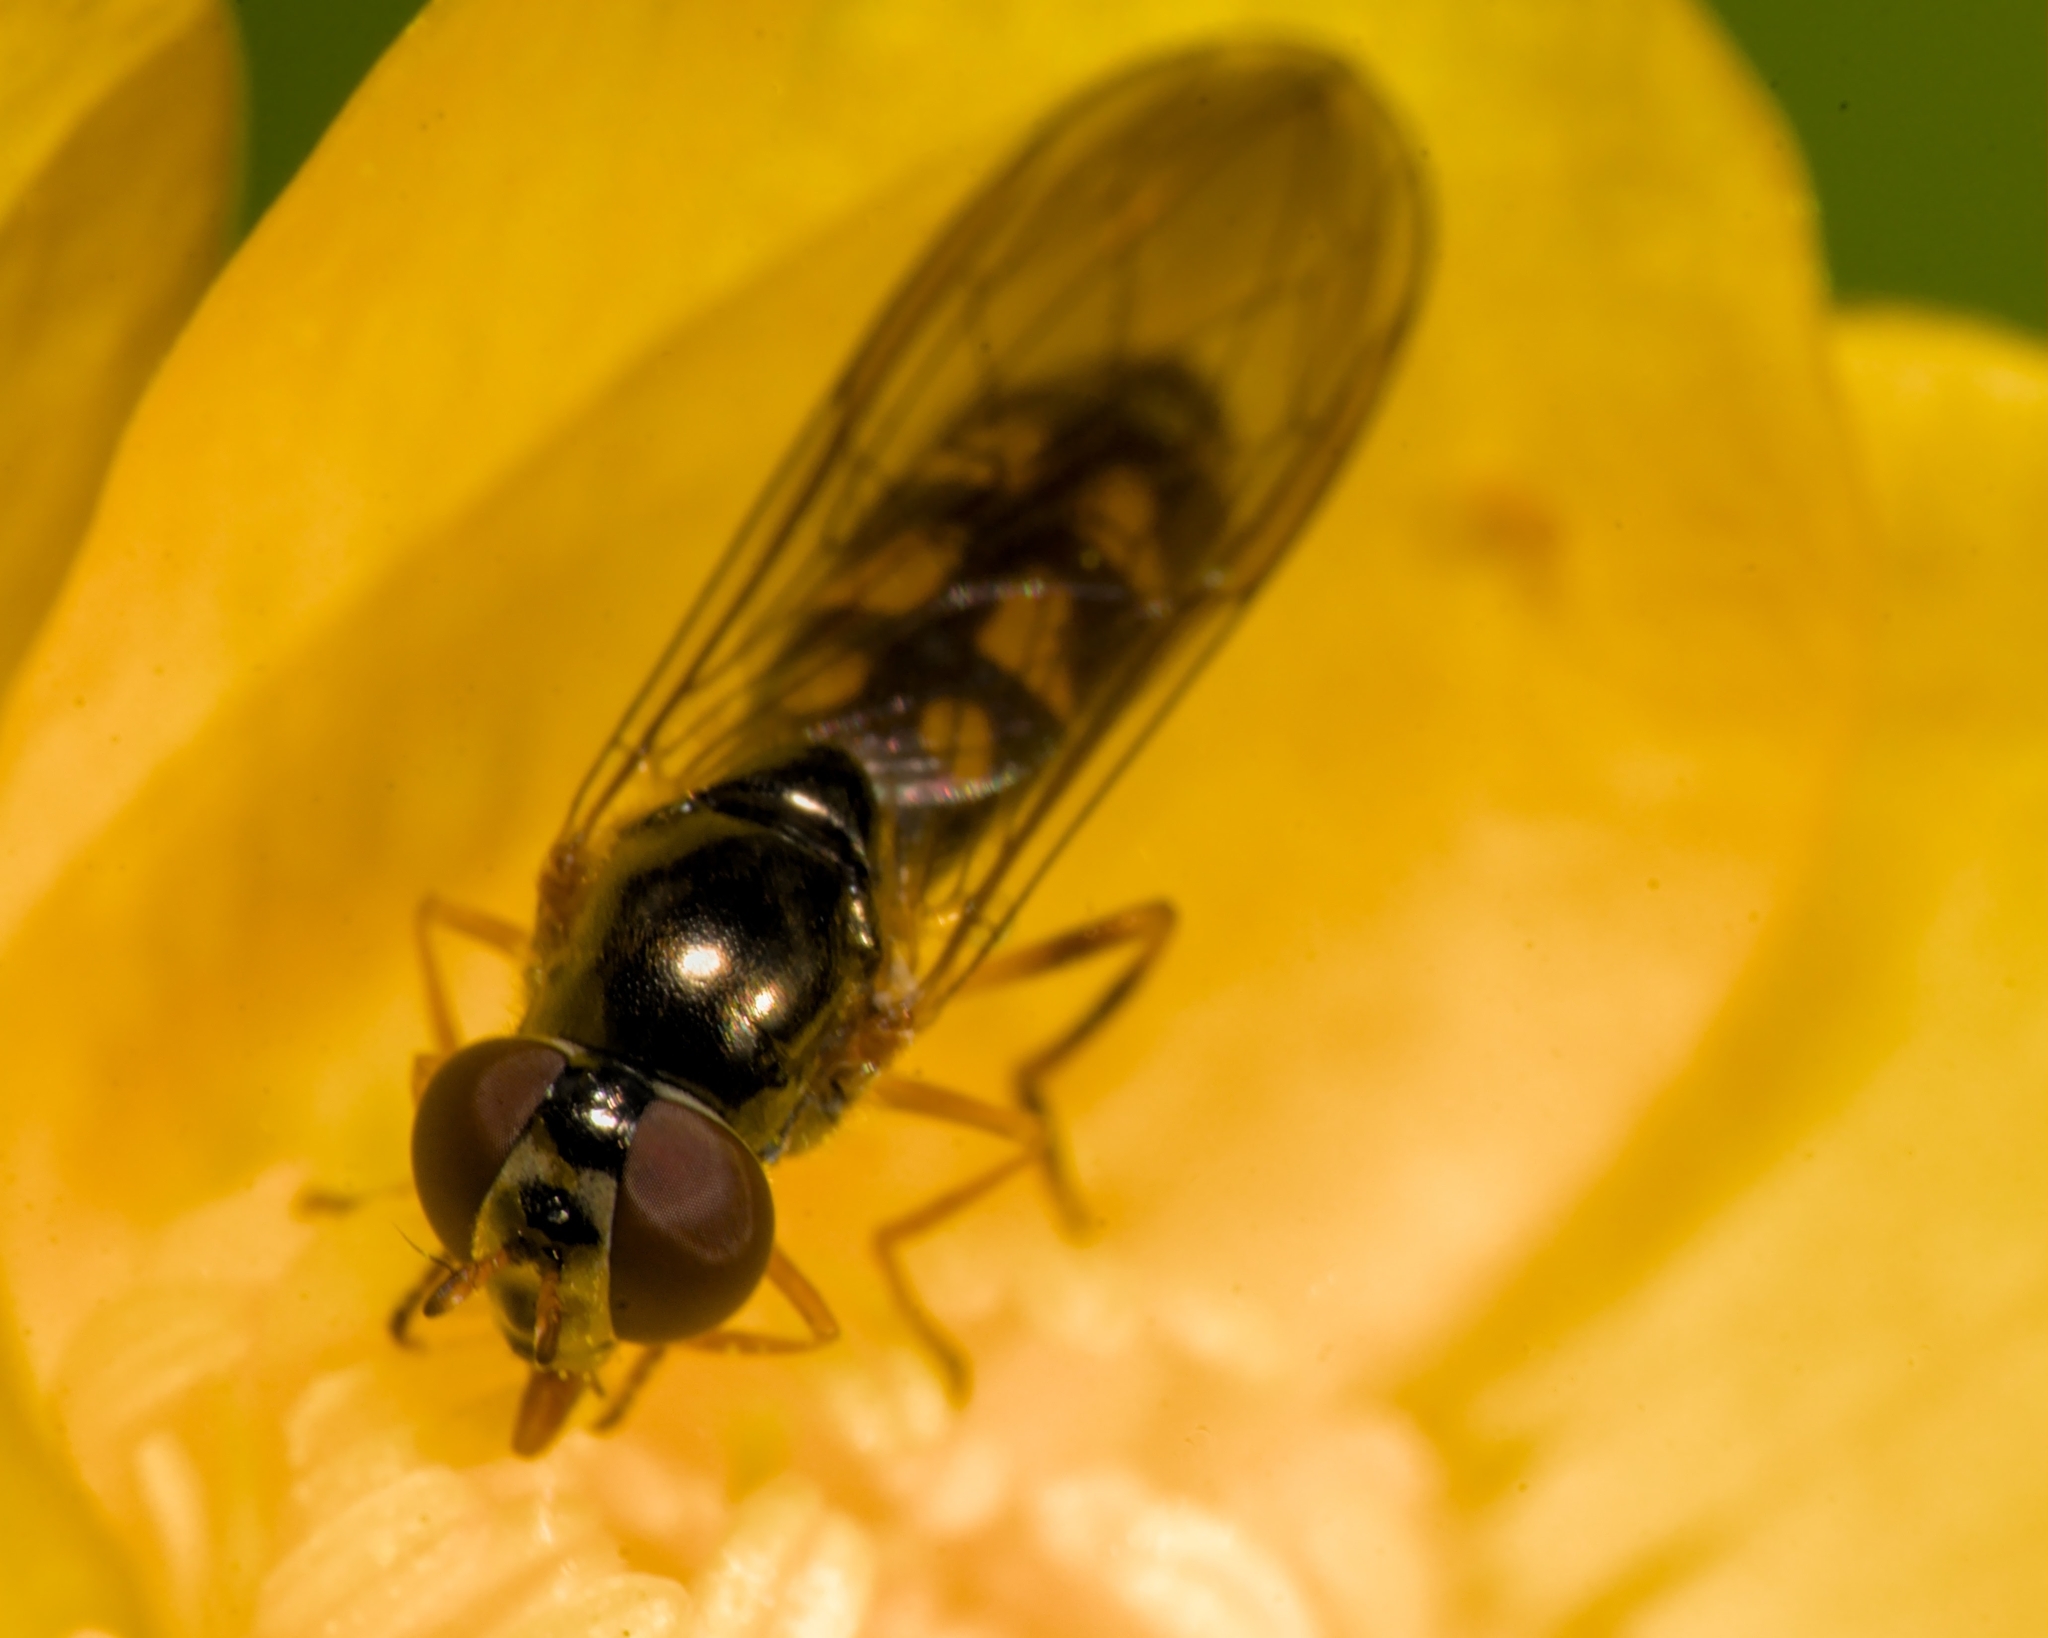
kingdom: Animalia
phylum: Arthropoda
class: Insecta
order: Diptera
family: Syrphidae
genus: Melanostoma
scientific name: Melanostoma scalare
